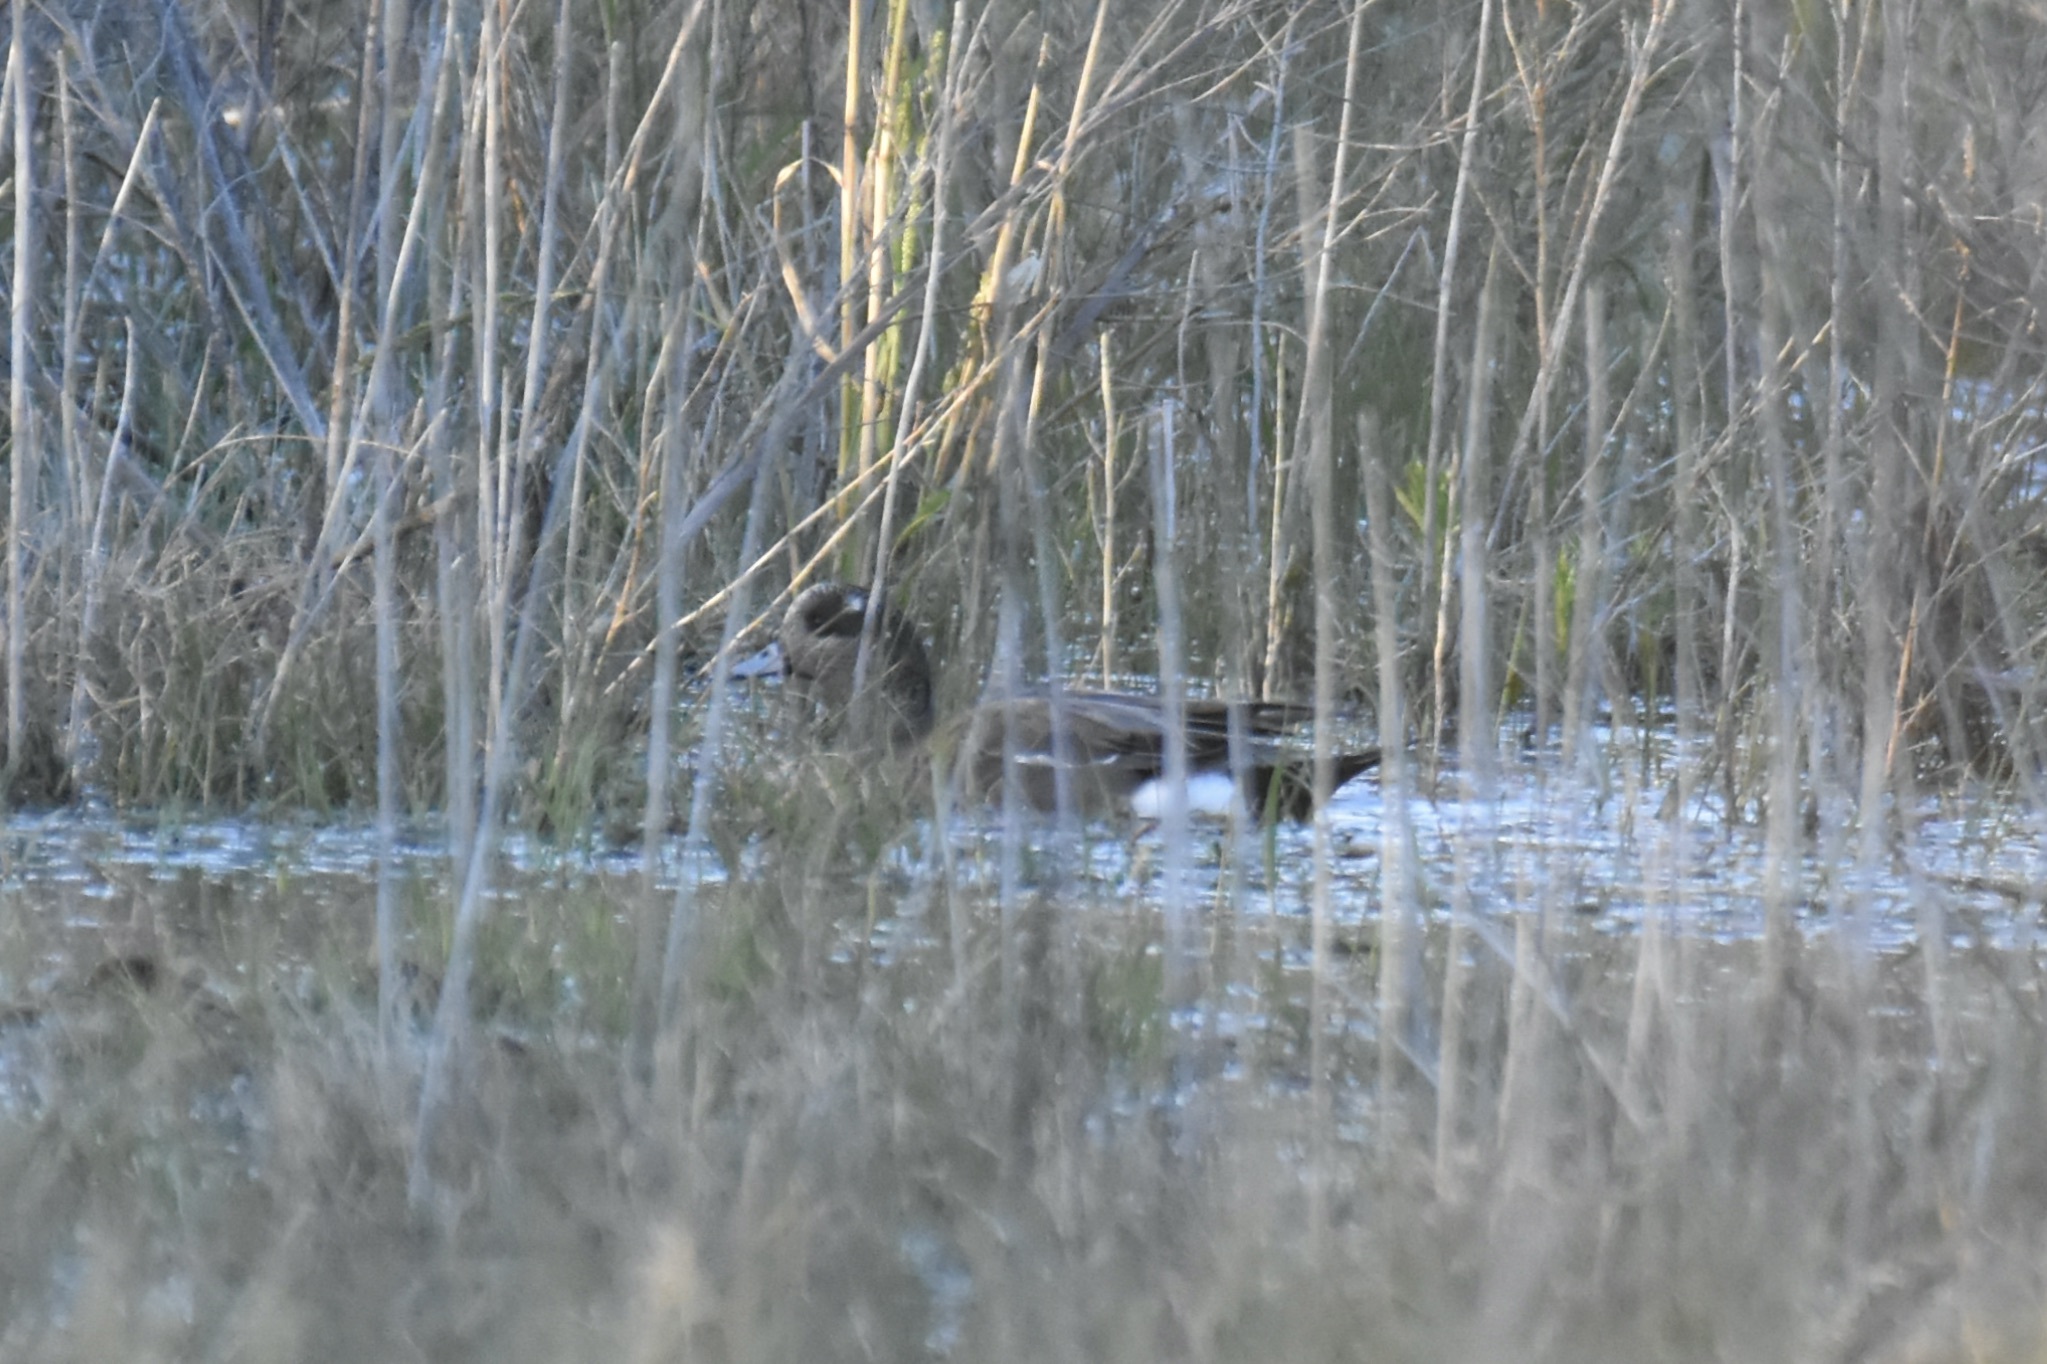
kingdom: Animalia
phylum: Chordata
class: Aves
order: Anseriformes
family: Anatidae
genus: Mareca
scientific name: Mareca americana
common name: American wigeon
